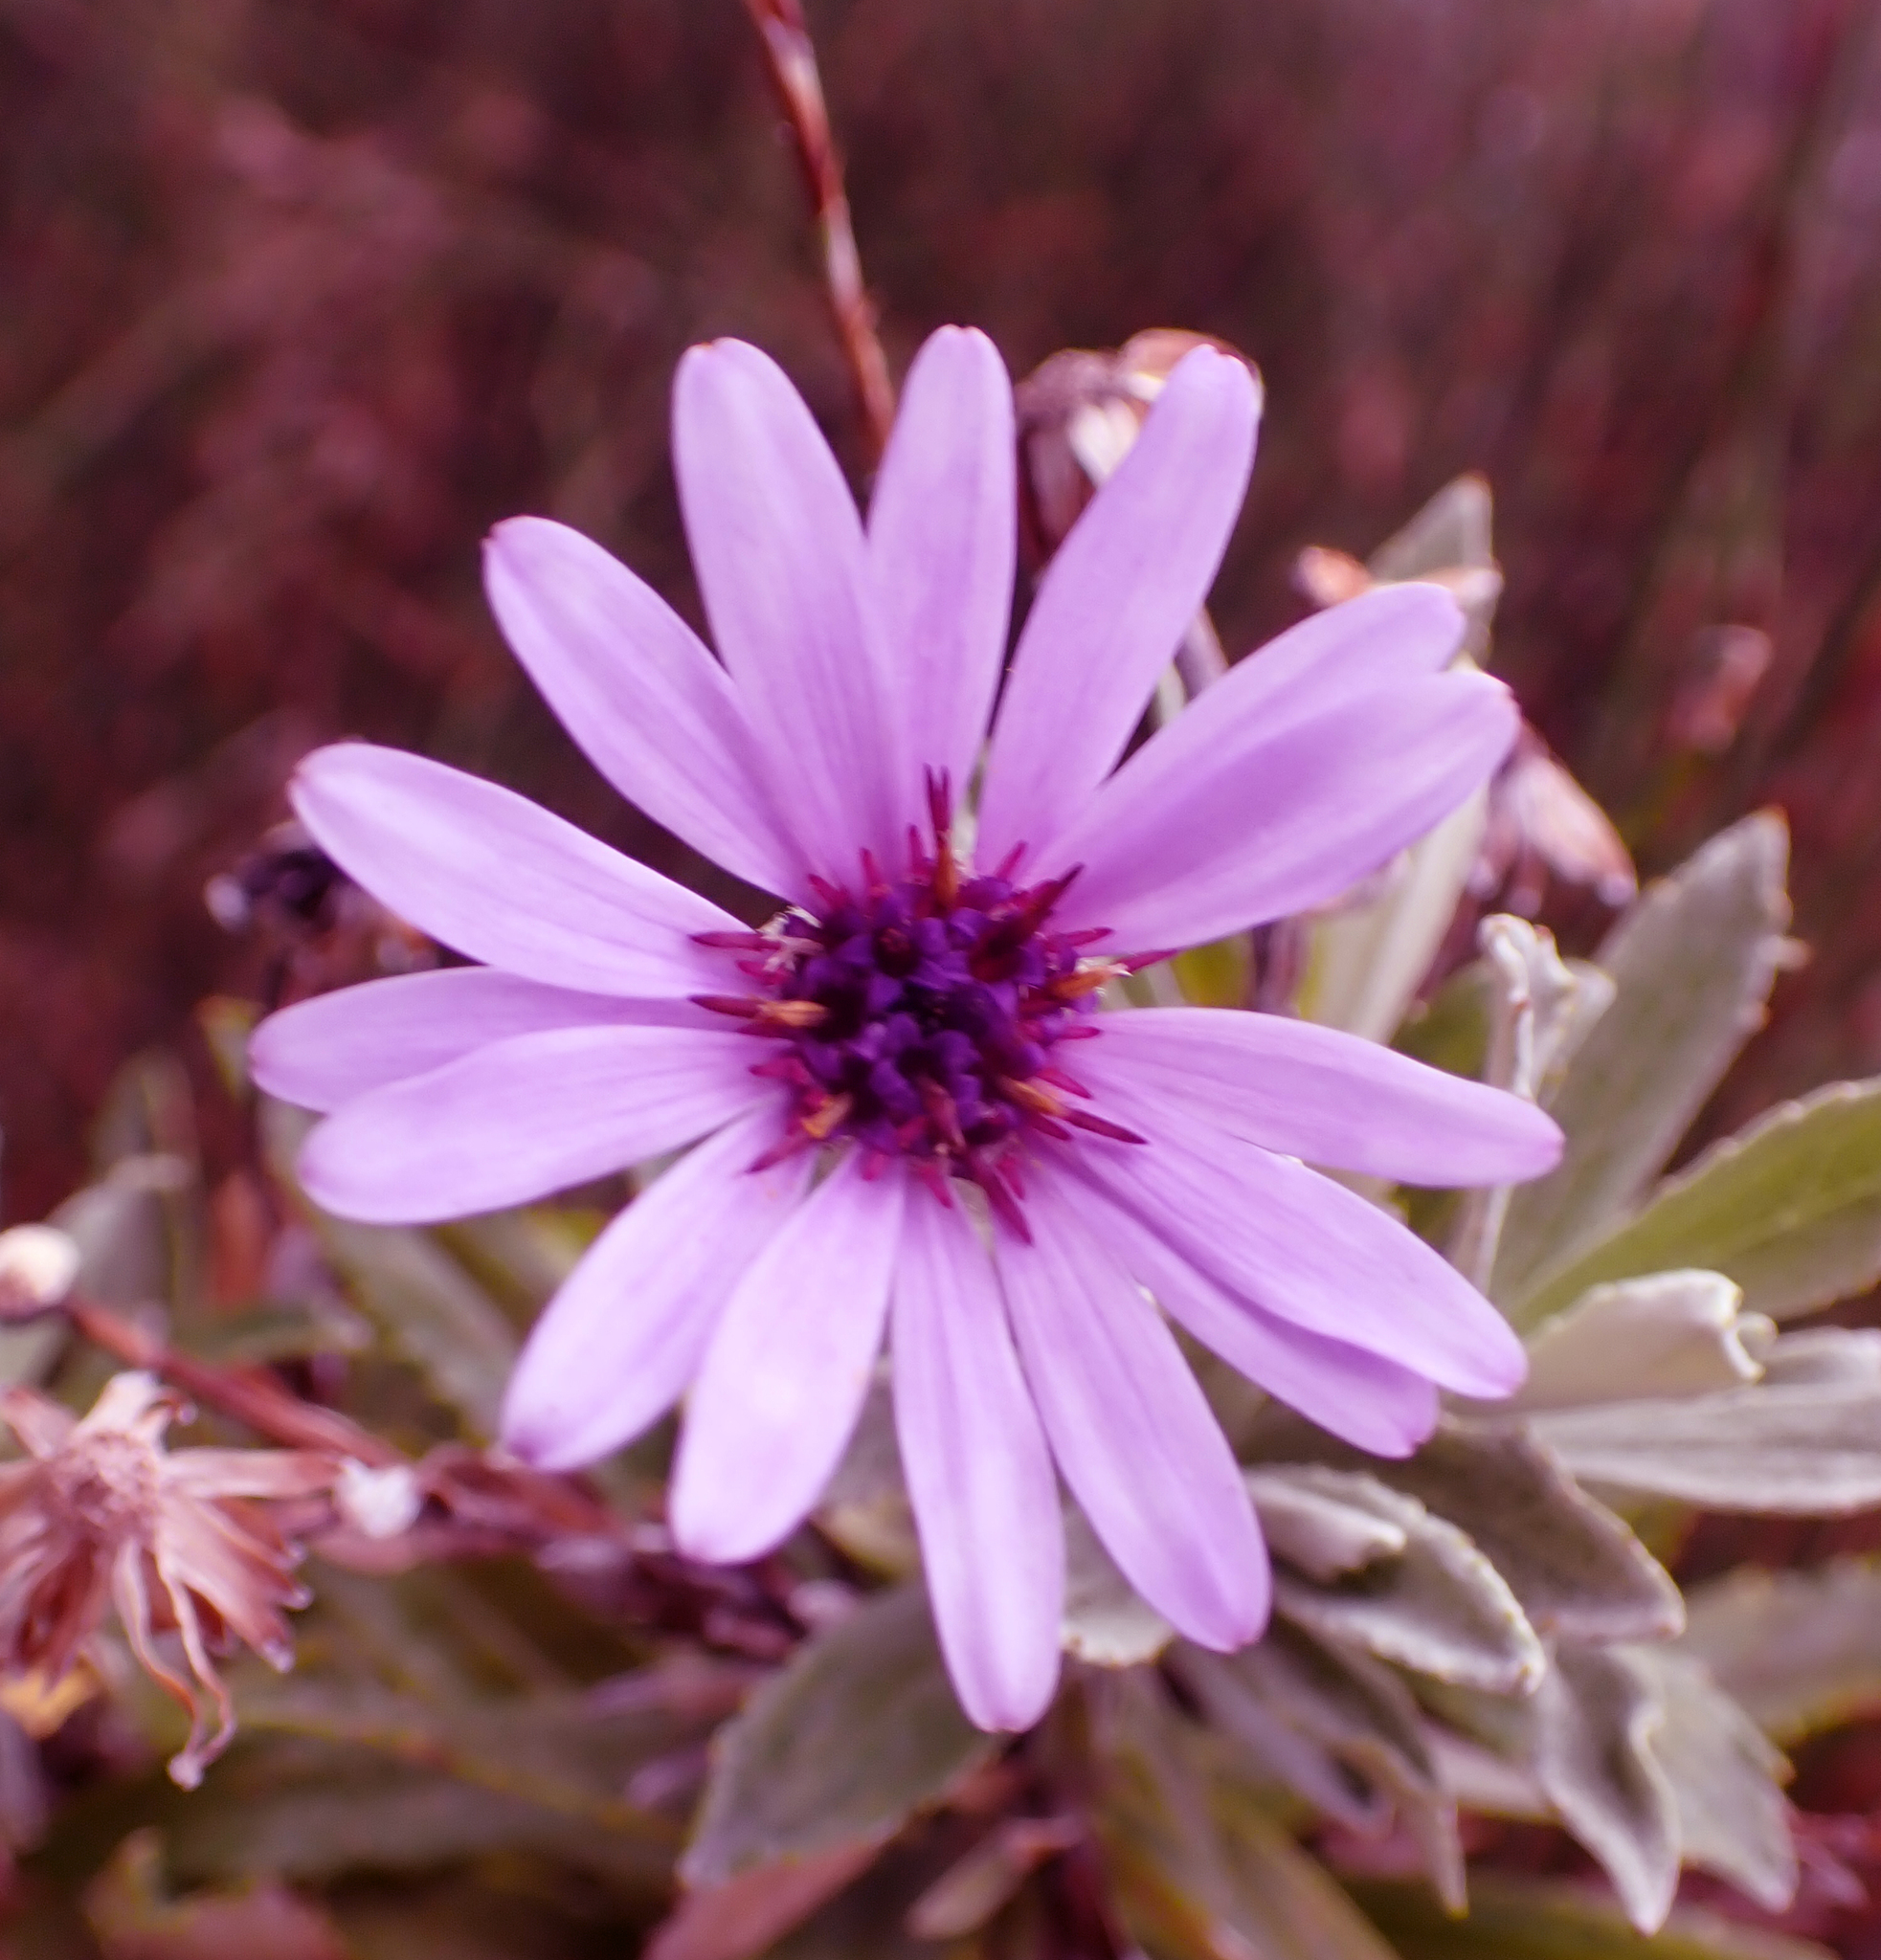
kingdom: Plantae
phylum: Tracheophyta
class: Magnoliopsida
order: Asterales
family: Asteraceae
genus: Macrolearia
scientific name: Macrolearia semidentata
